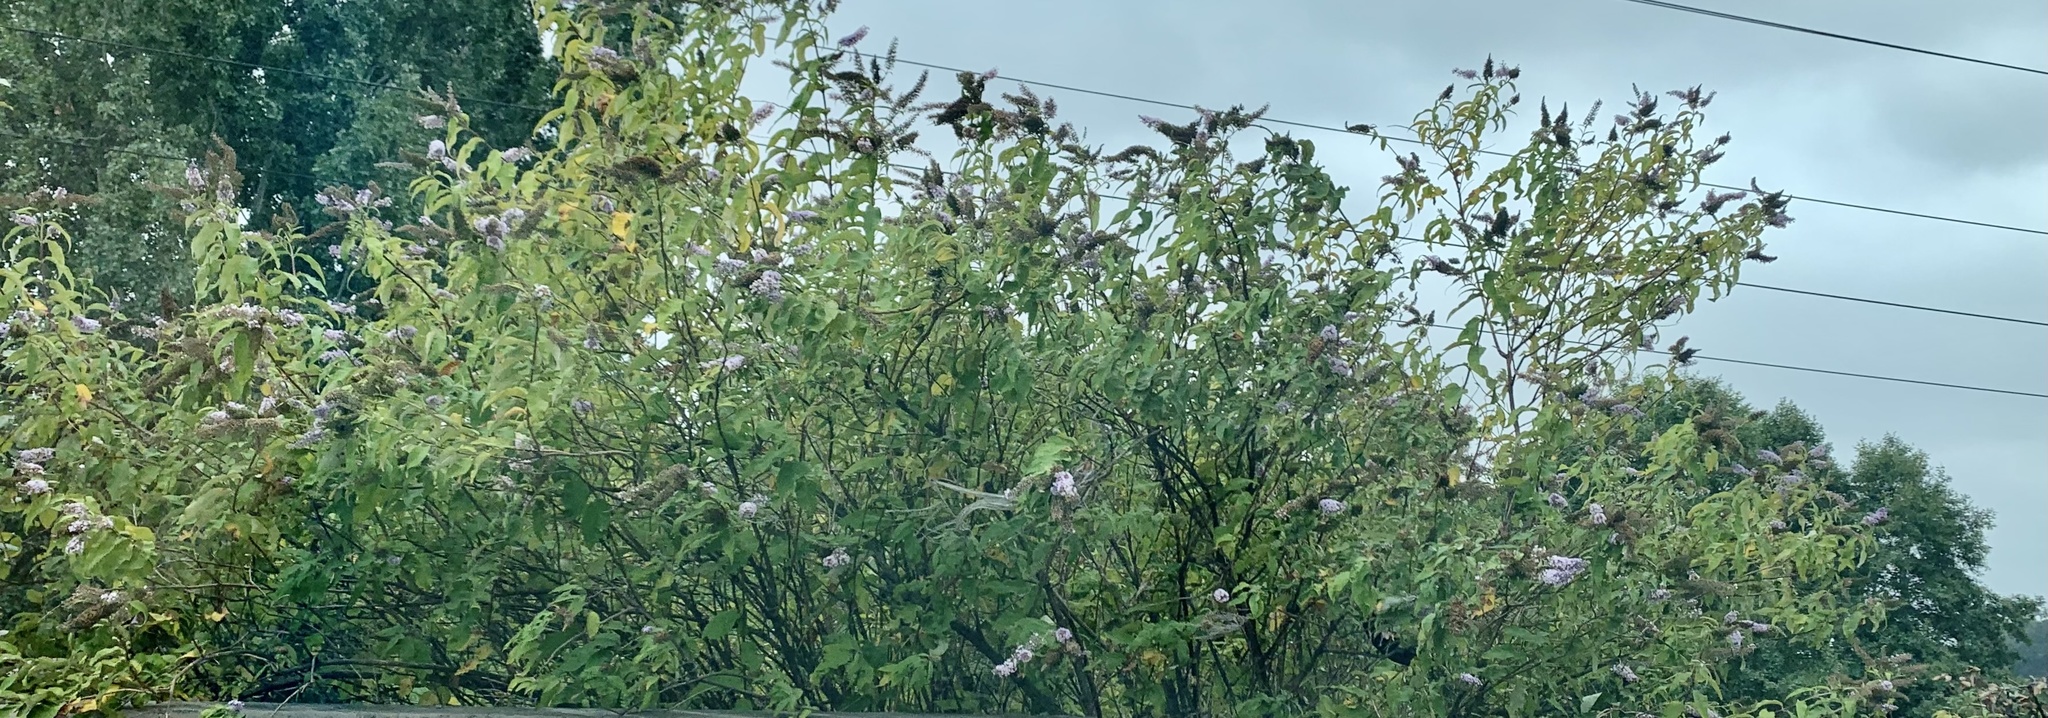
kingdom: Plantae
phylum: Tracheophyta
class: Magnoliopsida
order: Lamiales
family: Scrophulariaceae
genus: Buddleja
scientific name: Buddleja davidii
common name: Butterfly-bush
